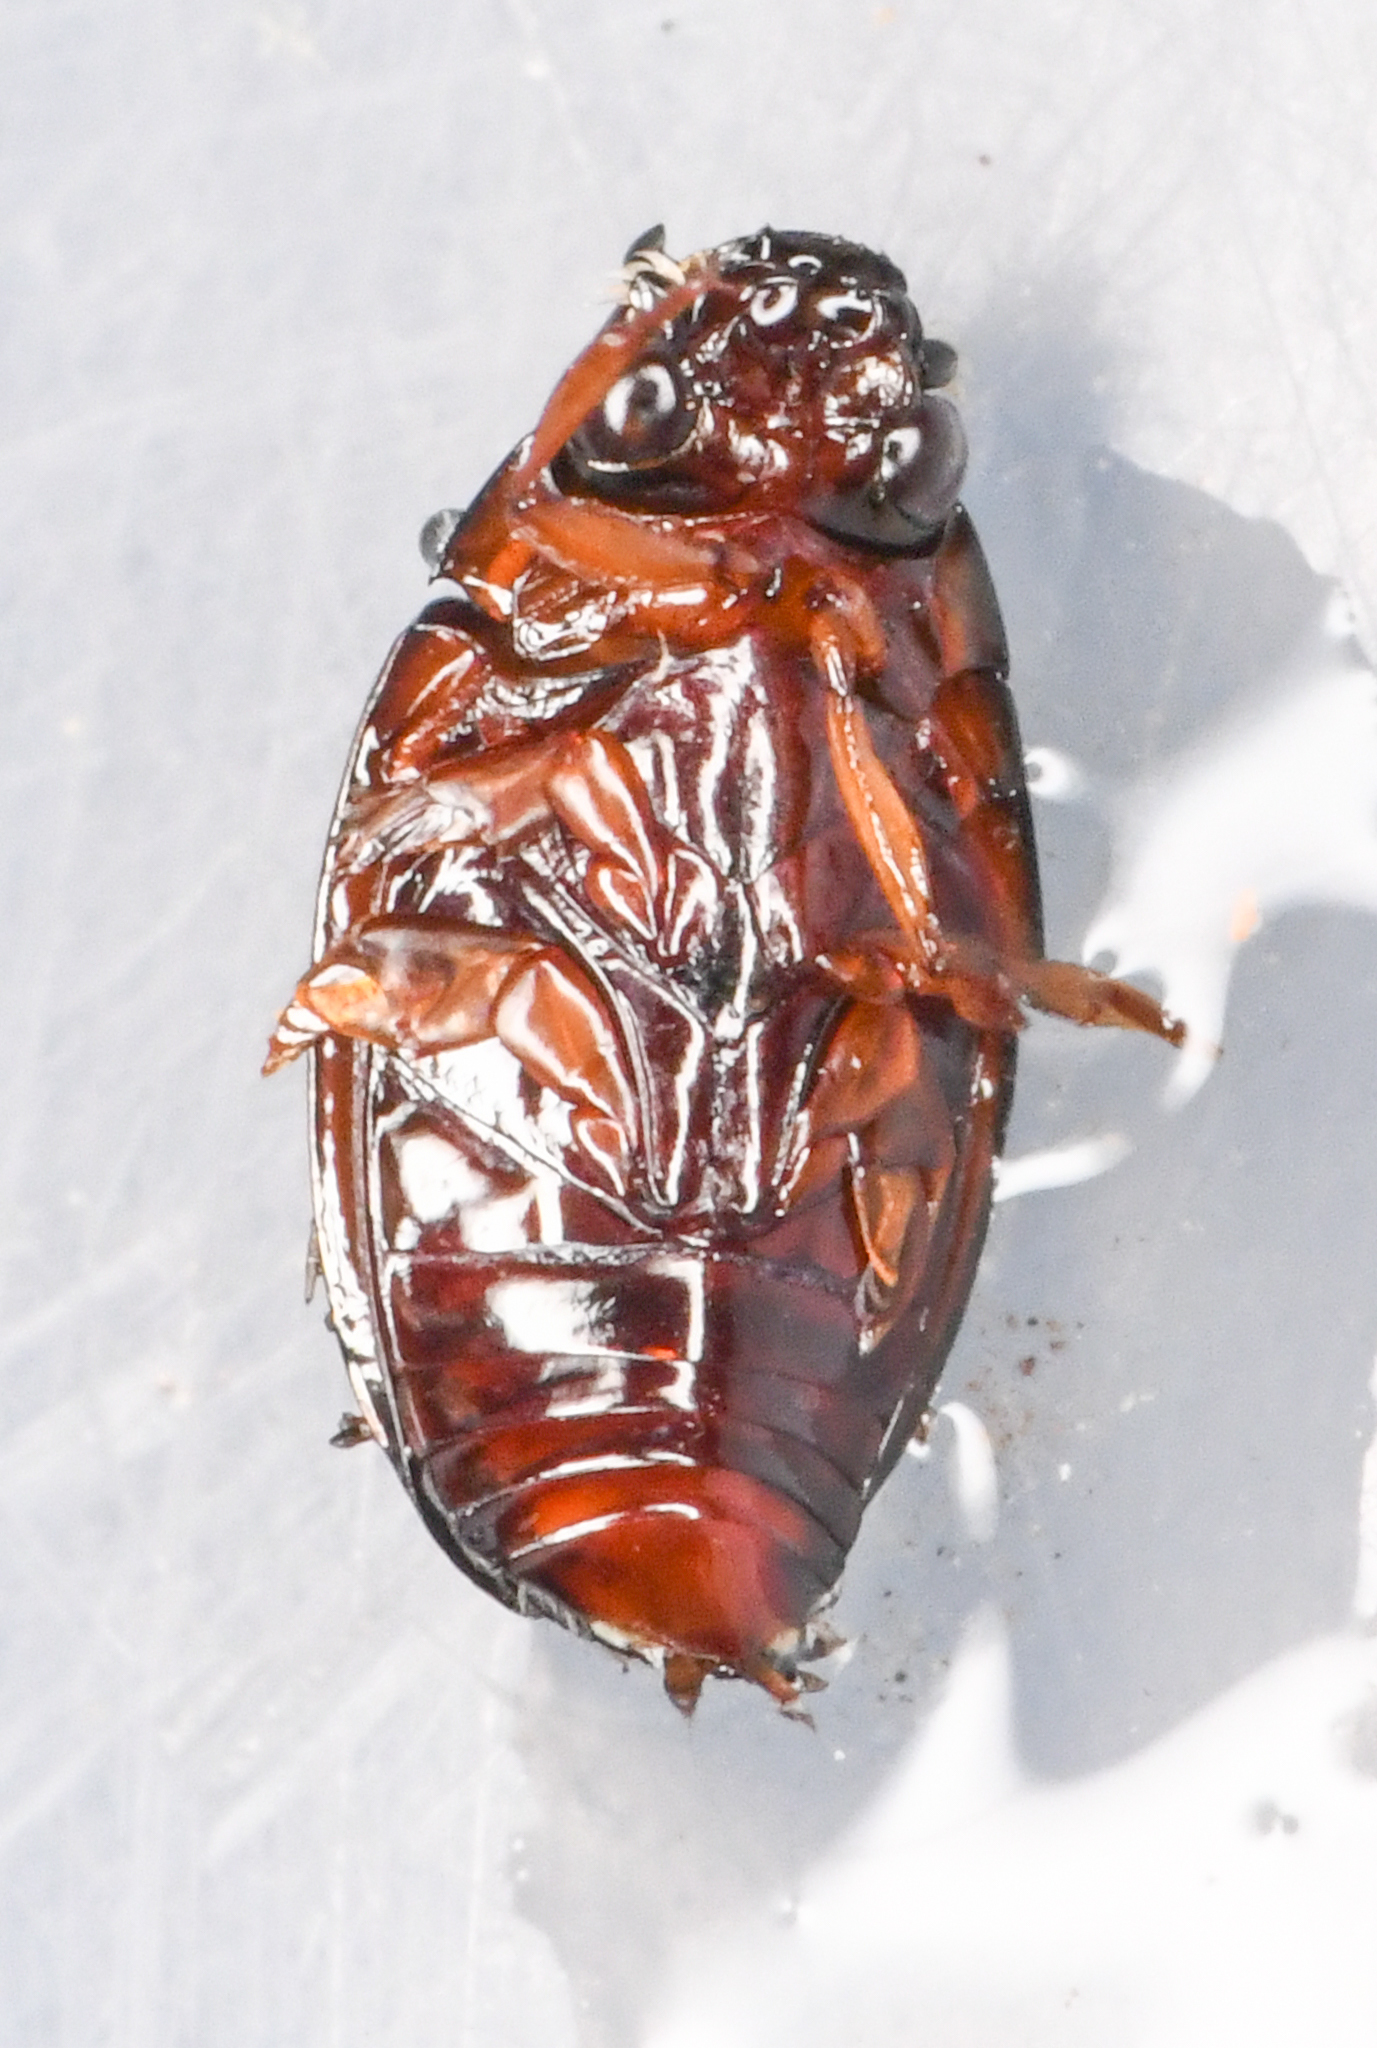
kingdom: Animalia
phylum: Arthropoda
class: Insecta
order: Coleoptera
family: Gyrinidae
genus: Gyrinus
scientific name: Gyrinus
